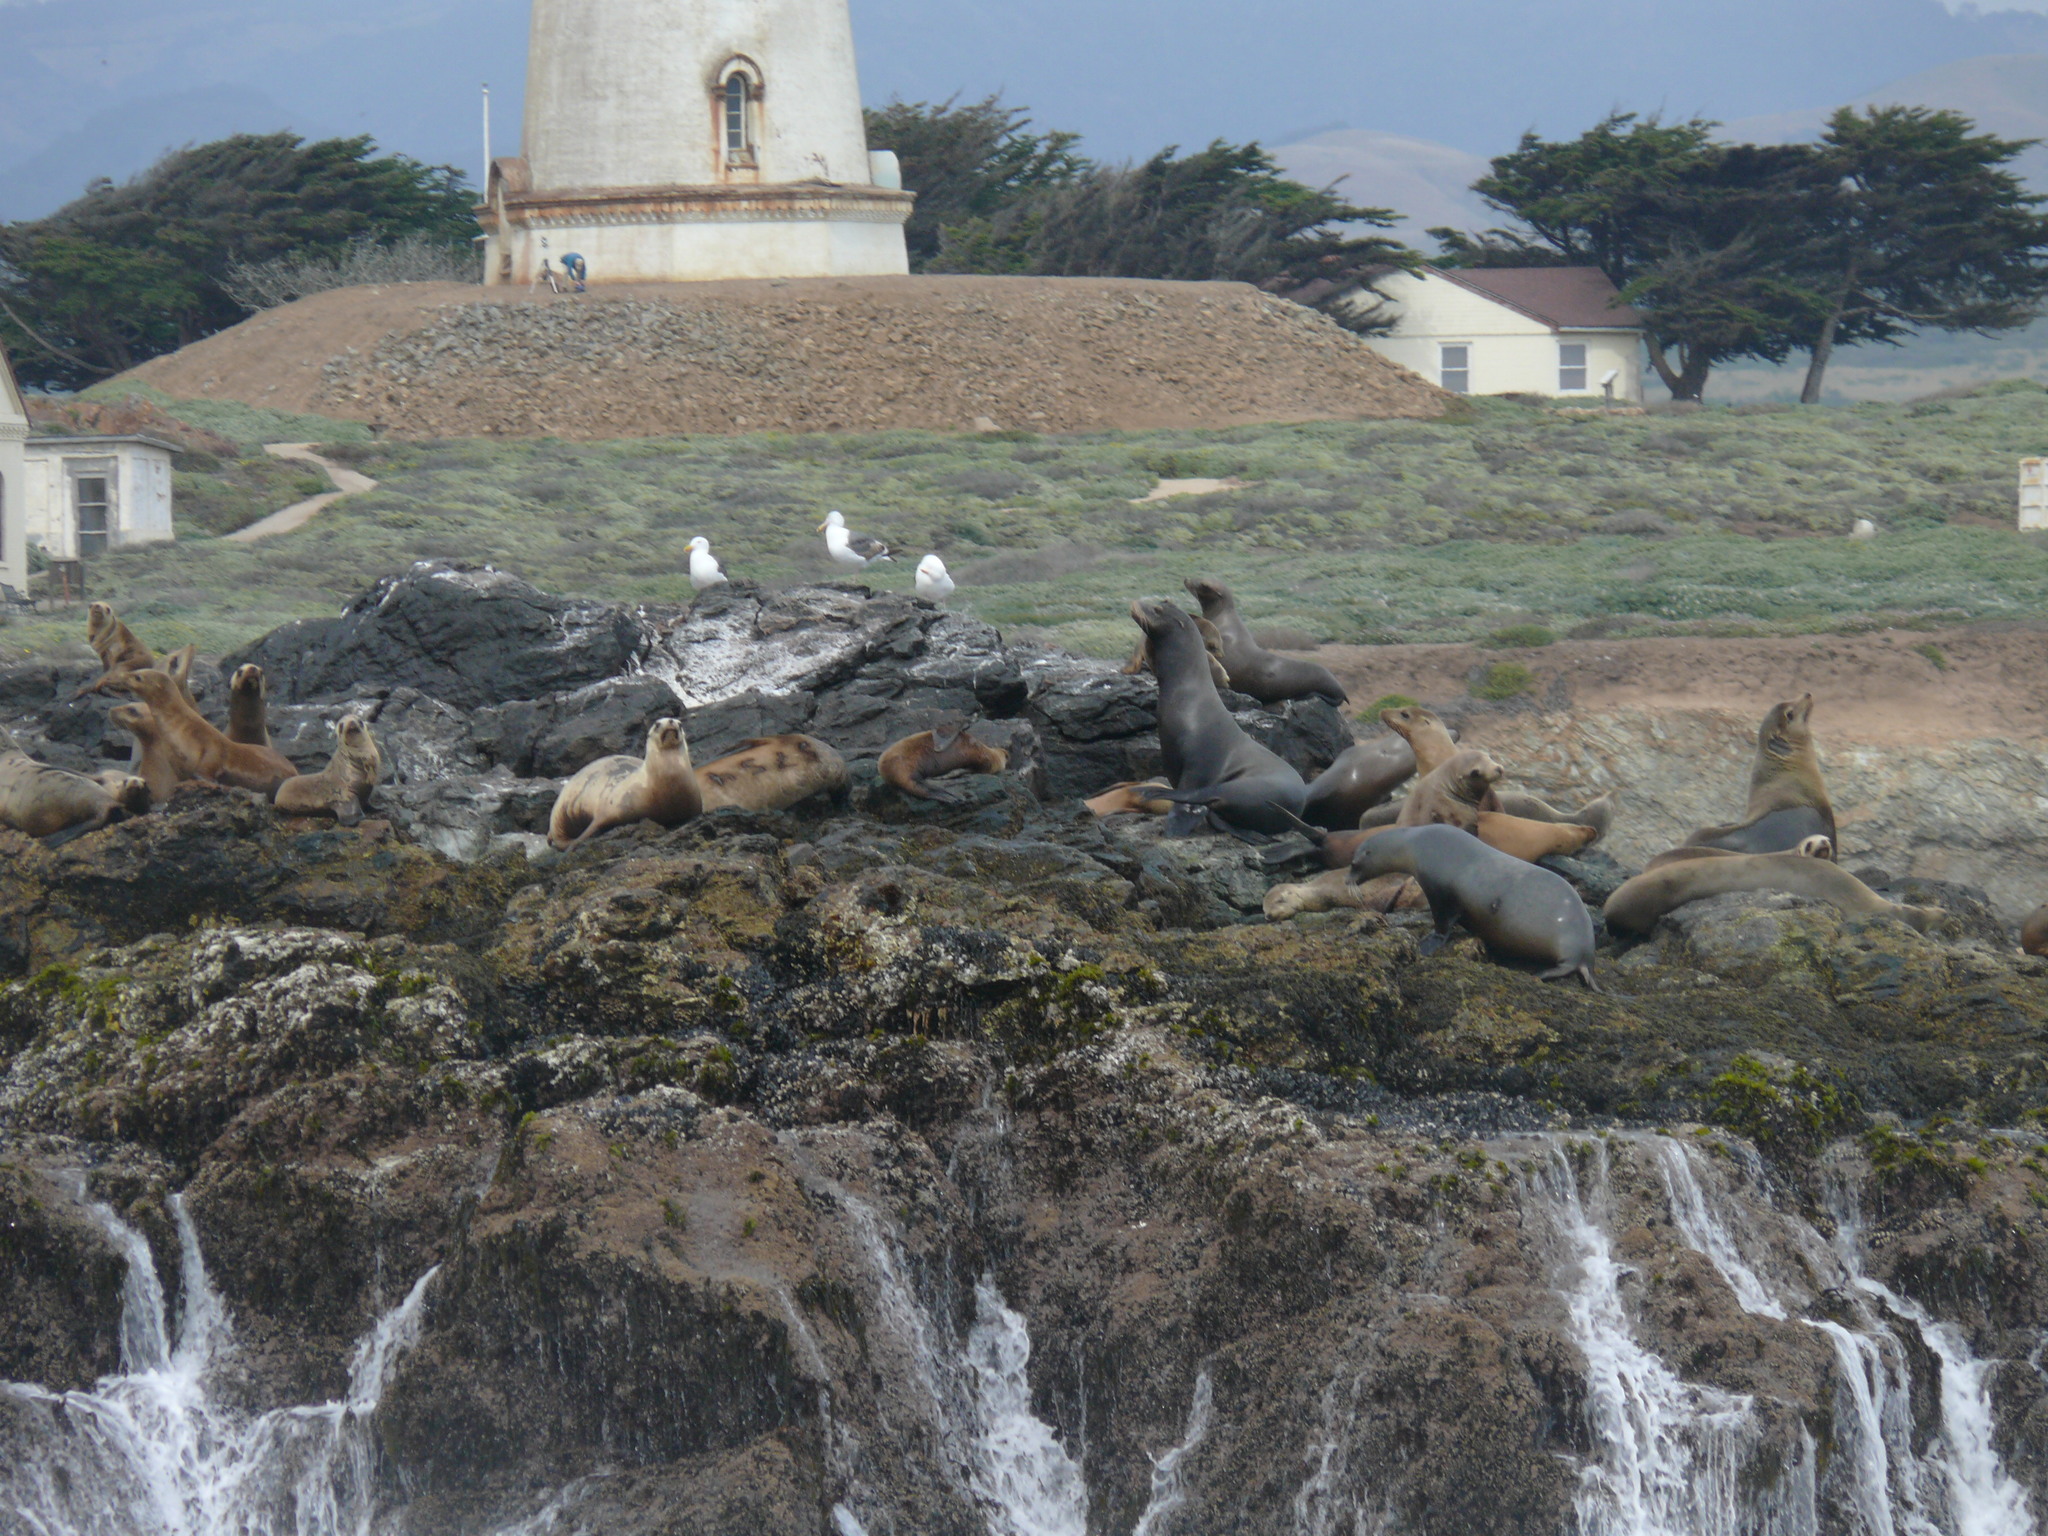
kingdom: Animalia
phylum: Chordata
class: Mammalia
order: Carnivora
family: Otariidae
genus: Zalophus
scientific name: Zalophus californianus
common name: California sea lion
